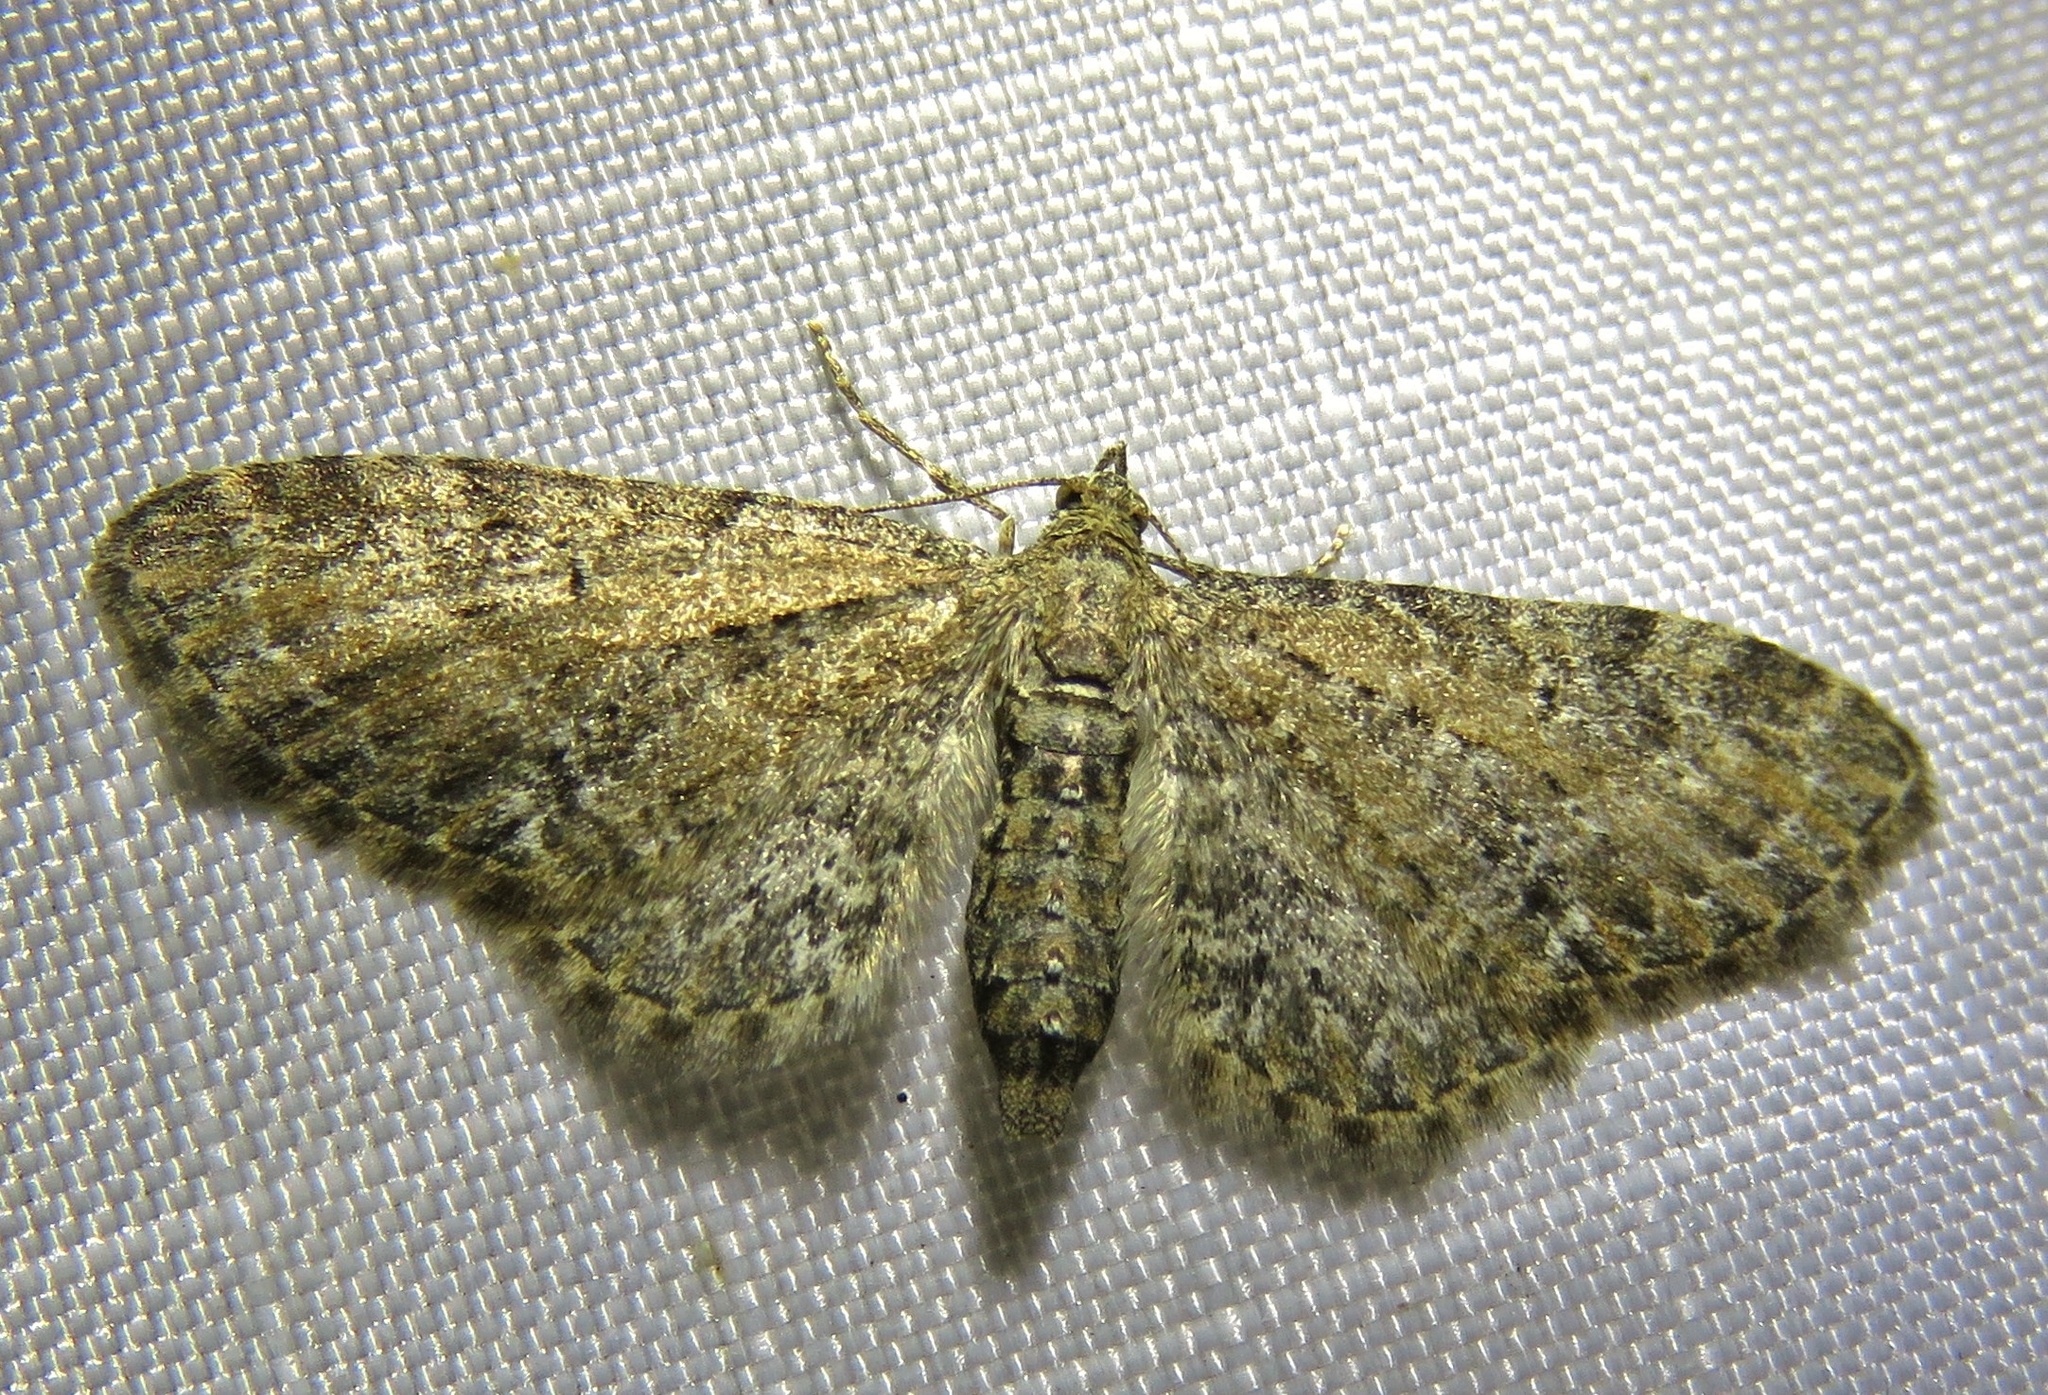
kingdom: Animalia
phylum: Arthropoda
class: Insecta
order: Lepidoptera
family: Geometridae
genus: Eupithecia
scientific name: Eupithecia vulgata
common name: Common pug
